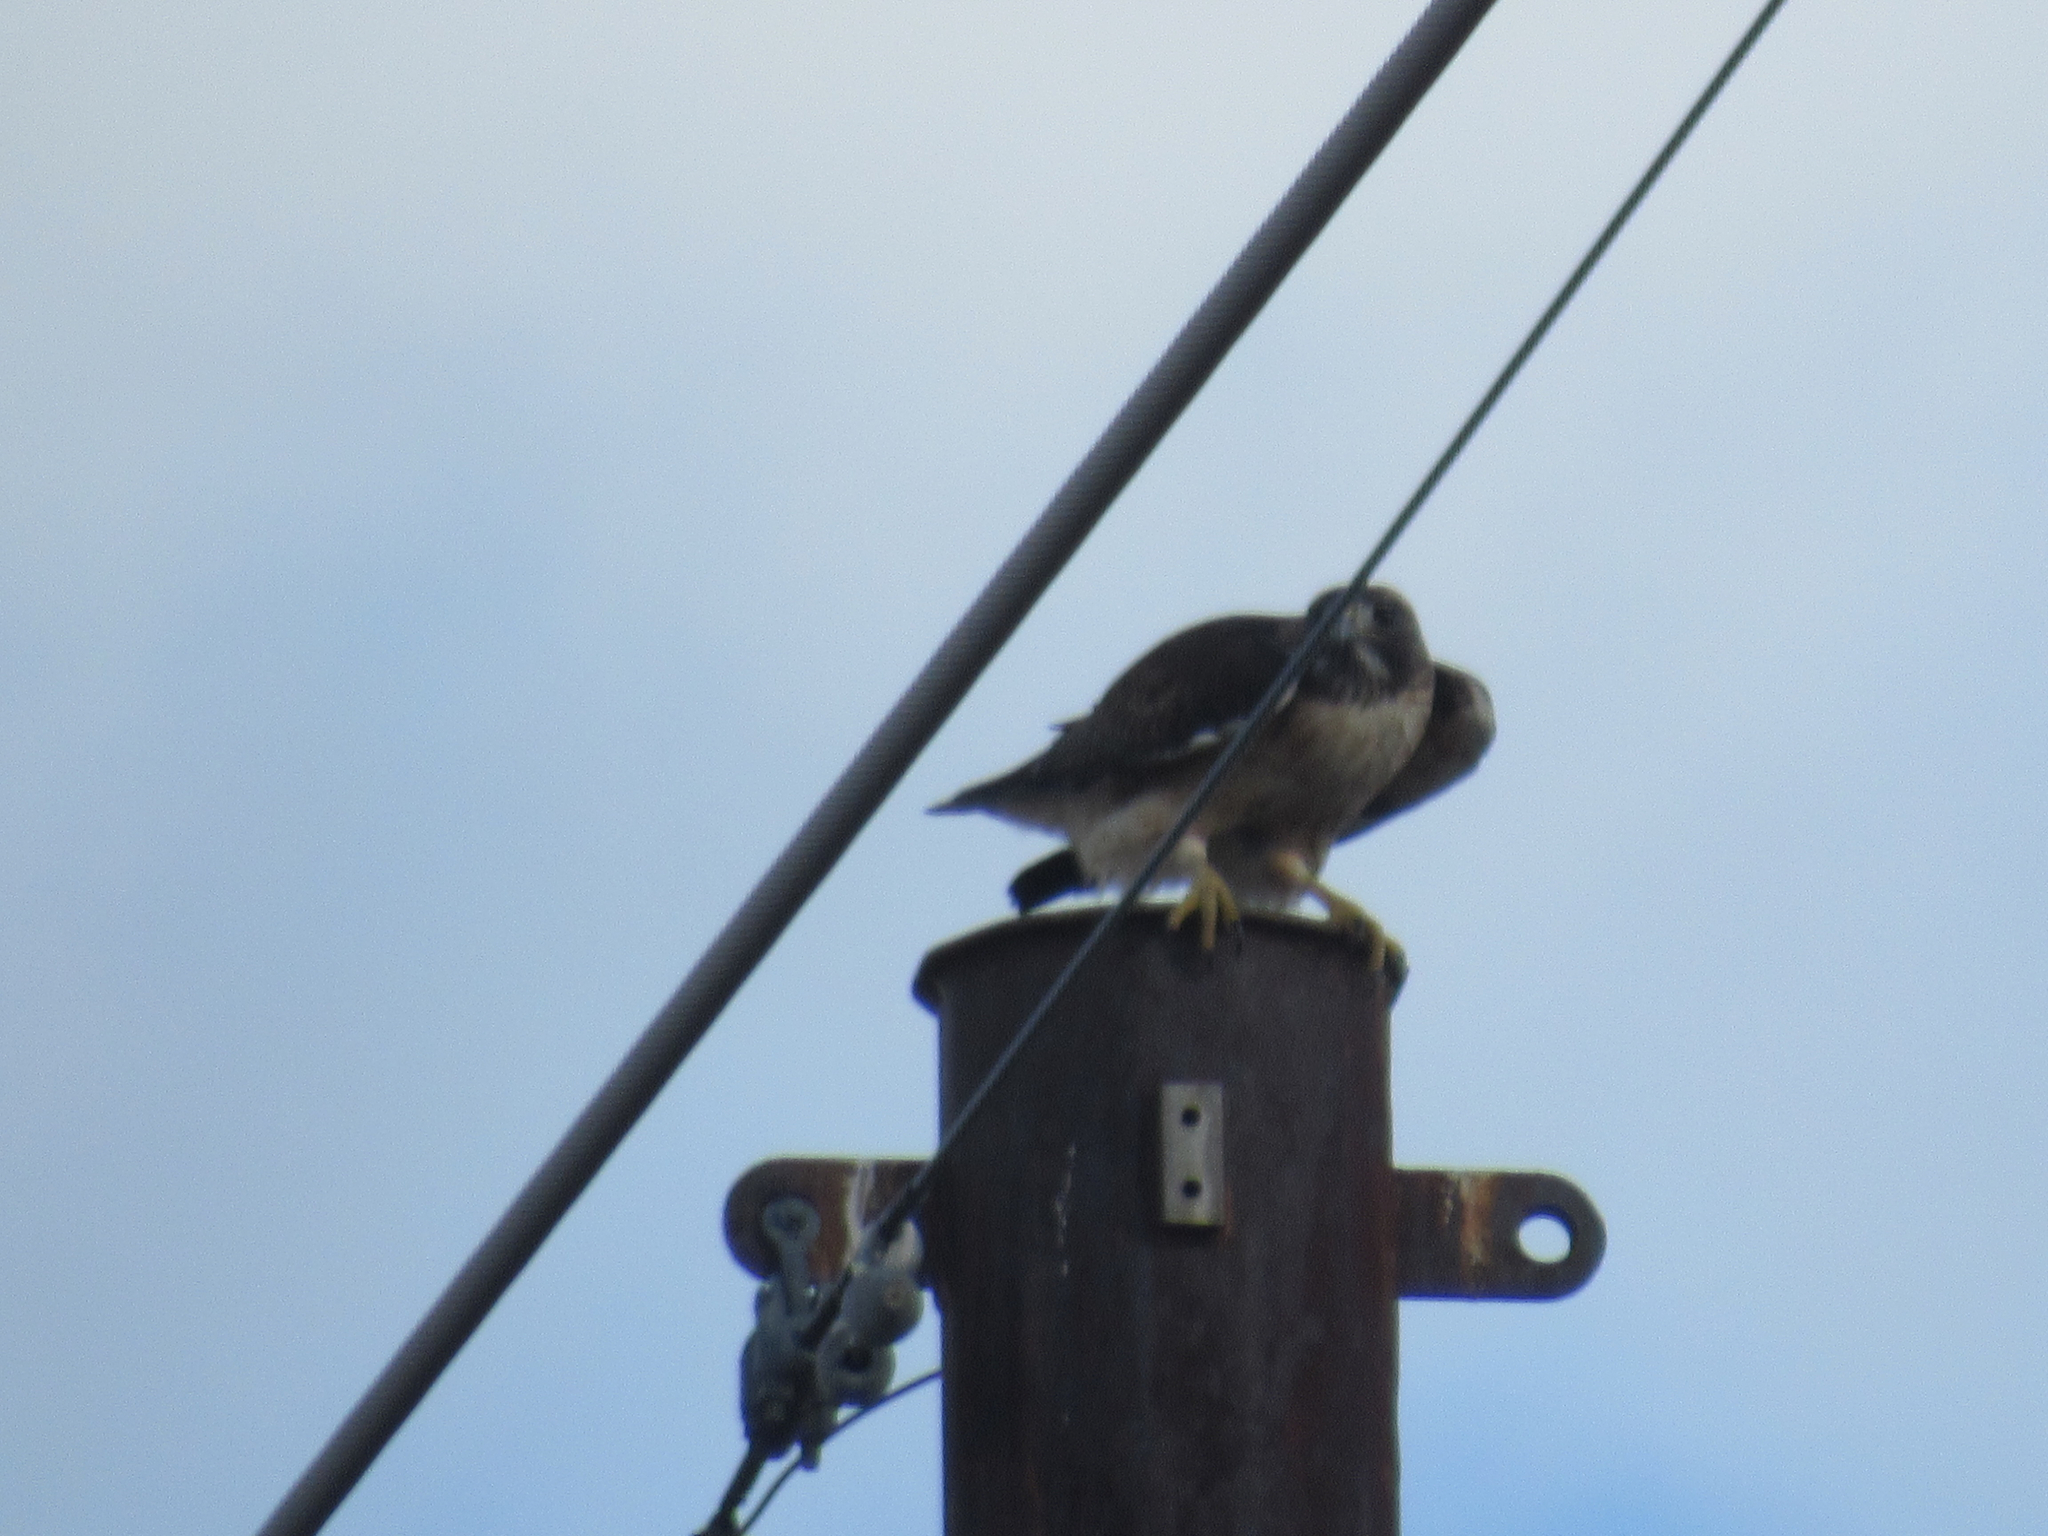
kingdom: Animalia
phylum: Chordata
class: Aves
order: Accipitriformes
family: Accipitridae
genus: Buteo
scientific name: Buteo jamaicensis
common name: Red-tailed hawk
